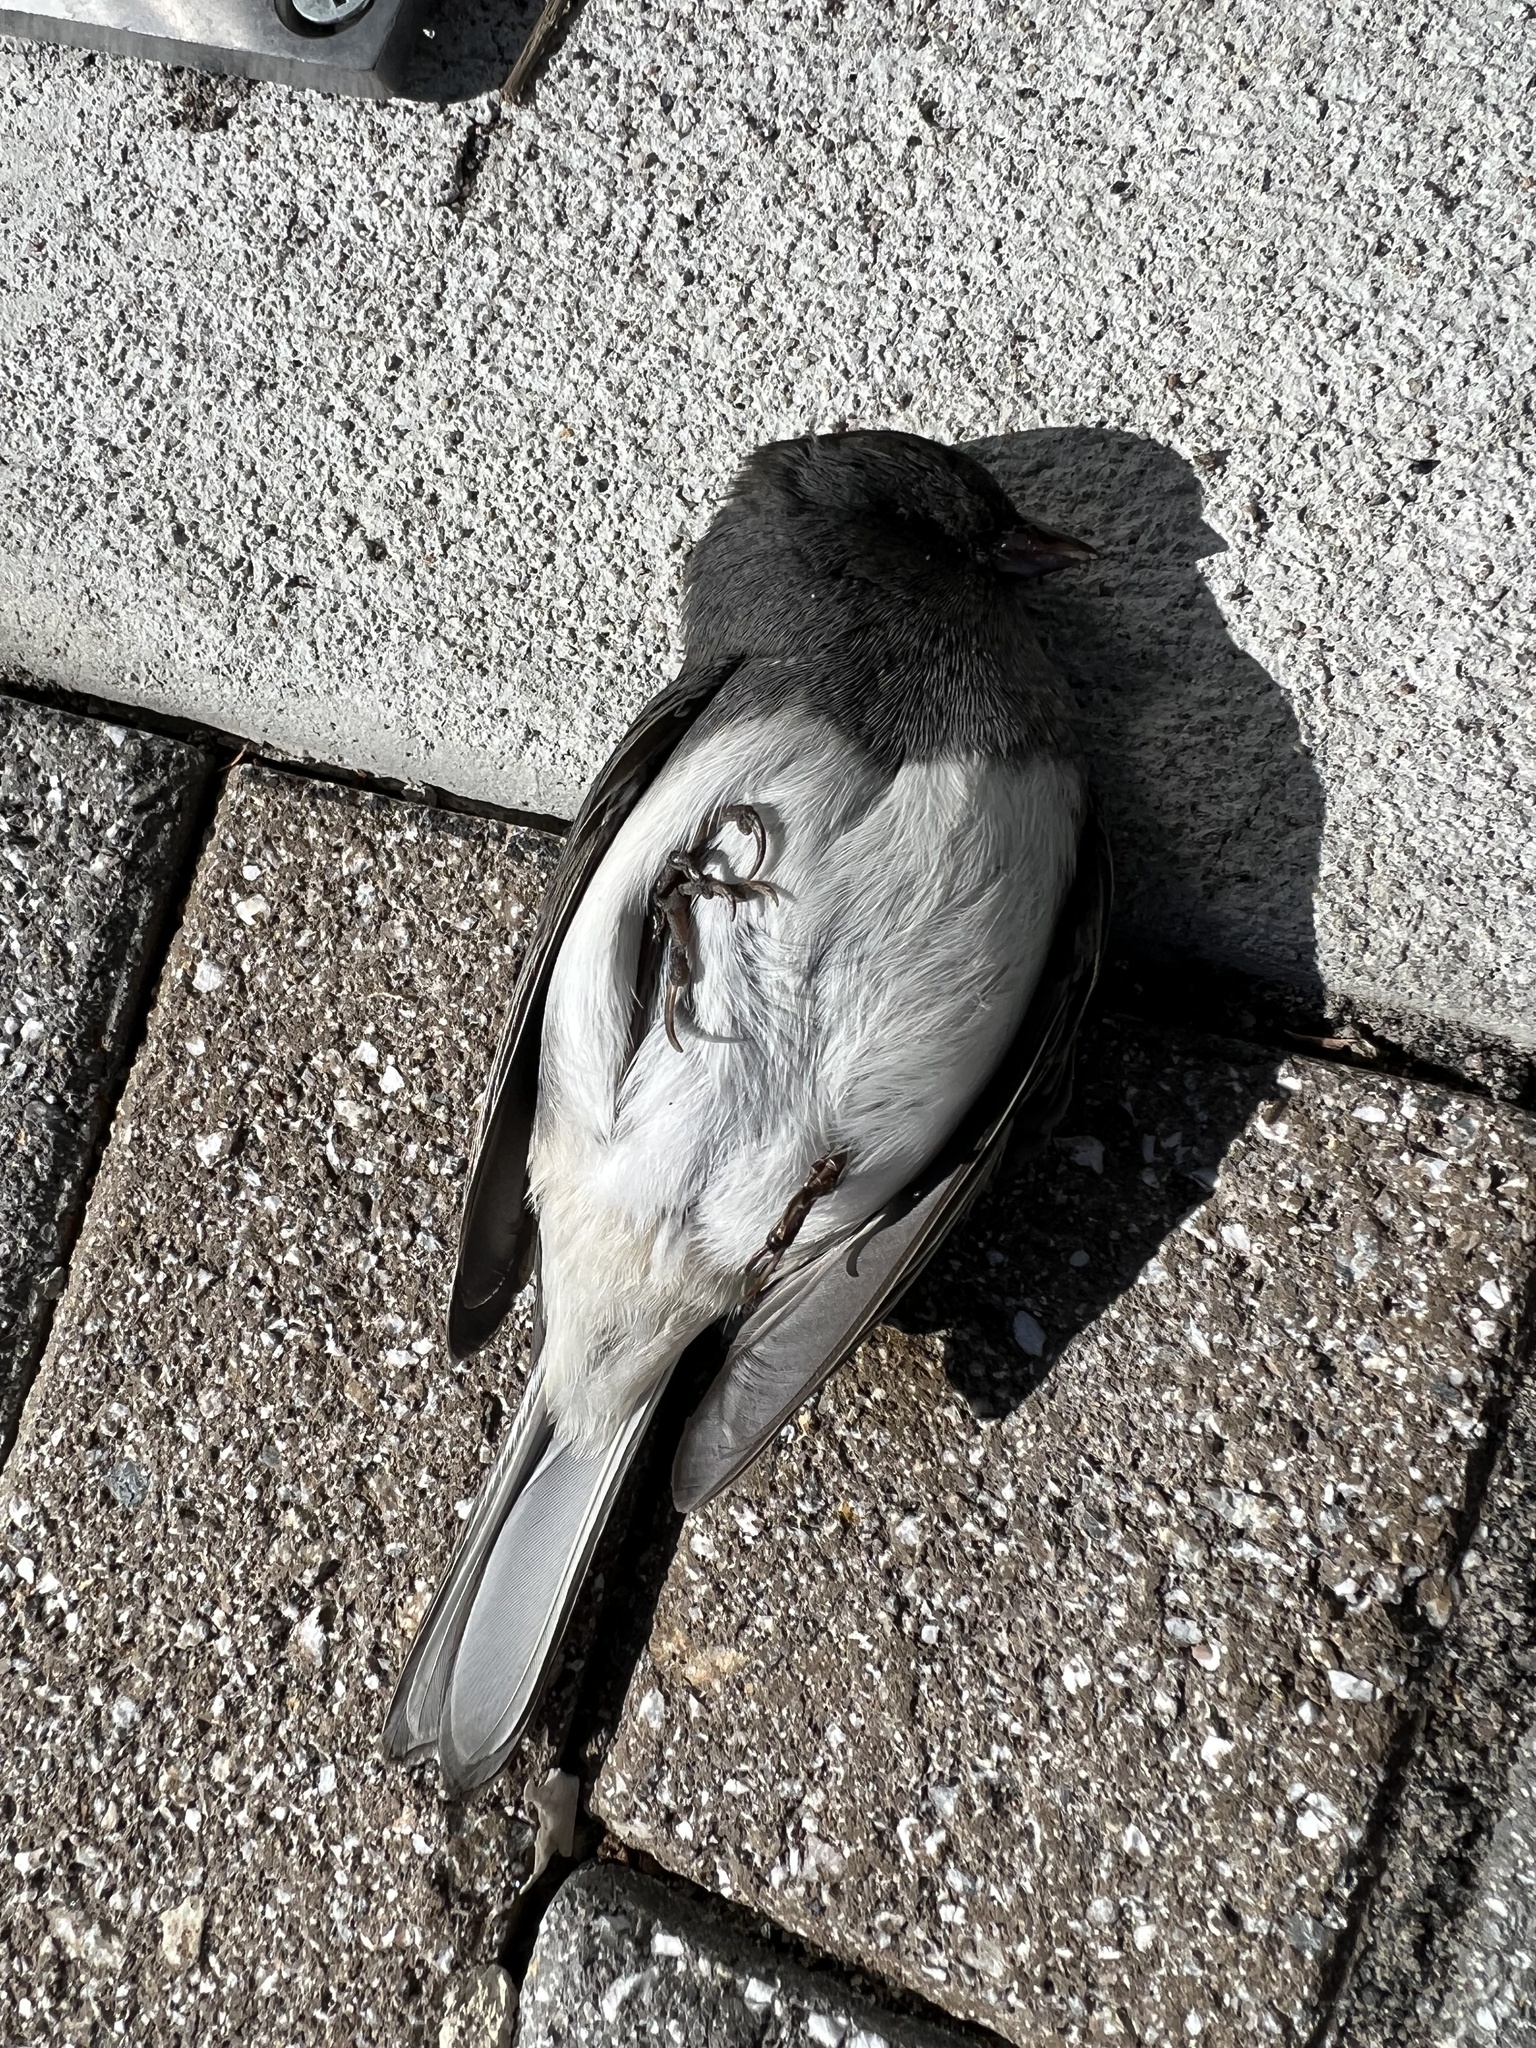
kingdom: Animalia
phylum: Chordata
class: Aves
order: Passeriformes
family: Passerellidae
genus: Junco
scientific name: Junco hyemalis
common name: Dark-eyed junco
